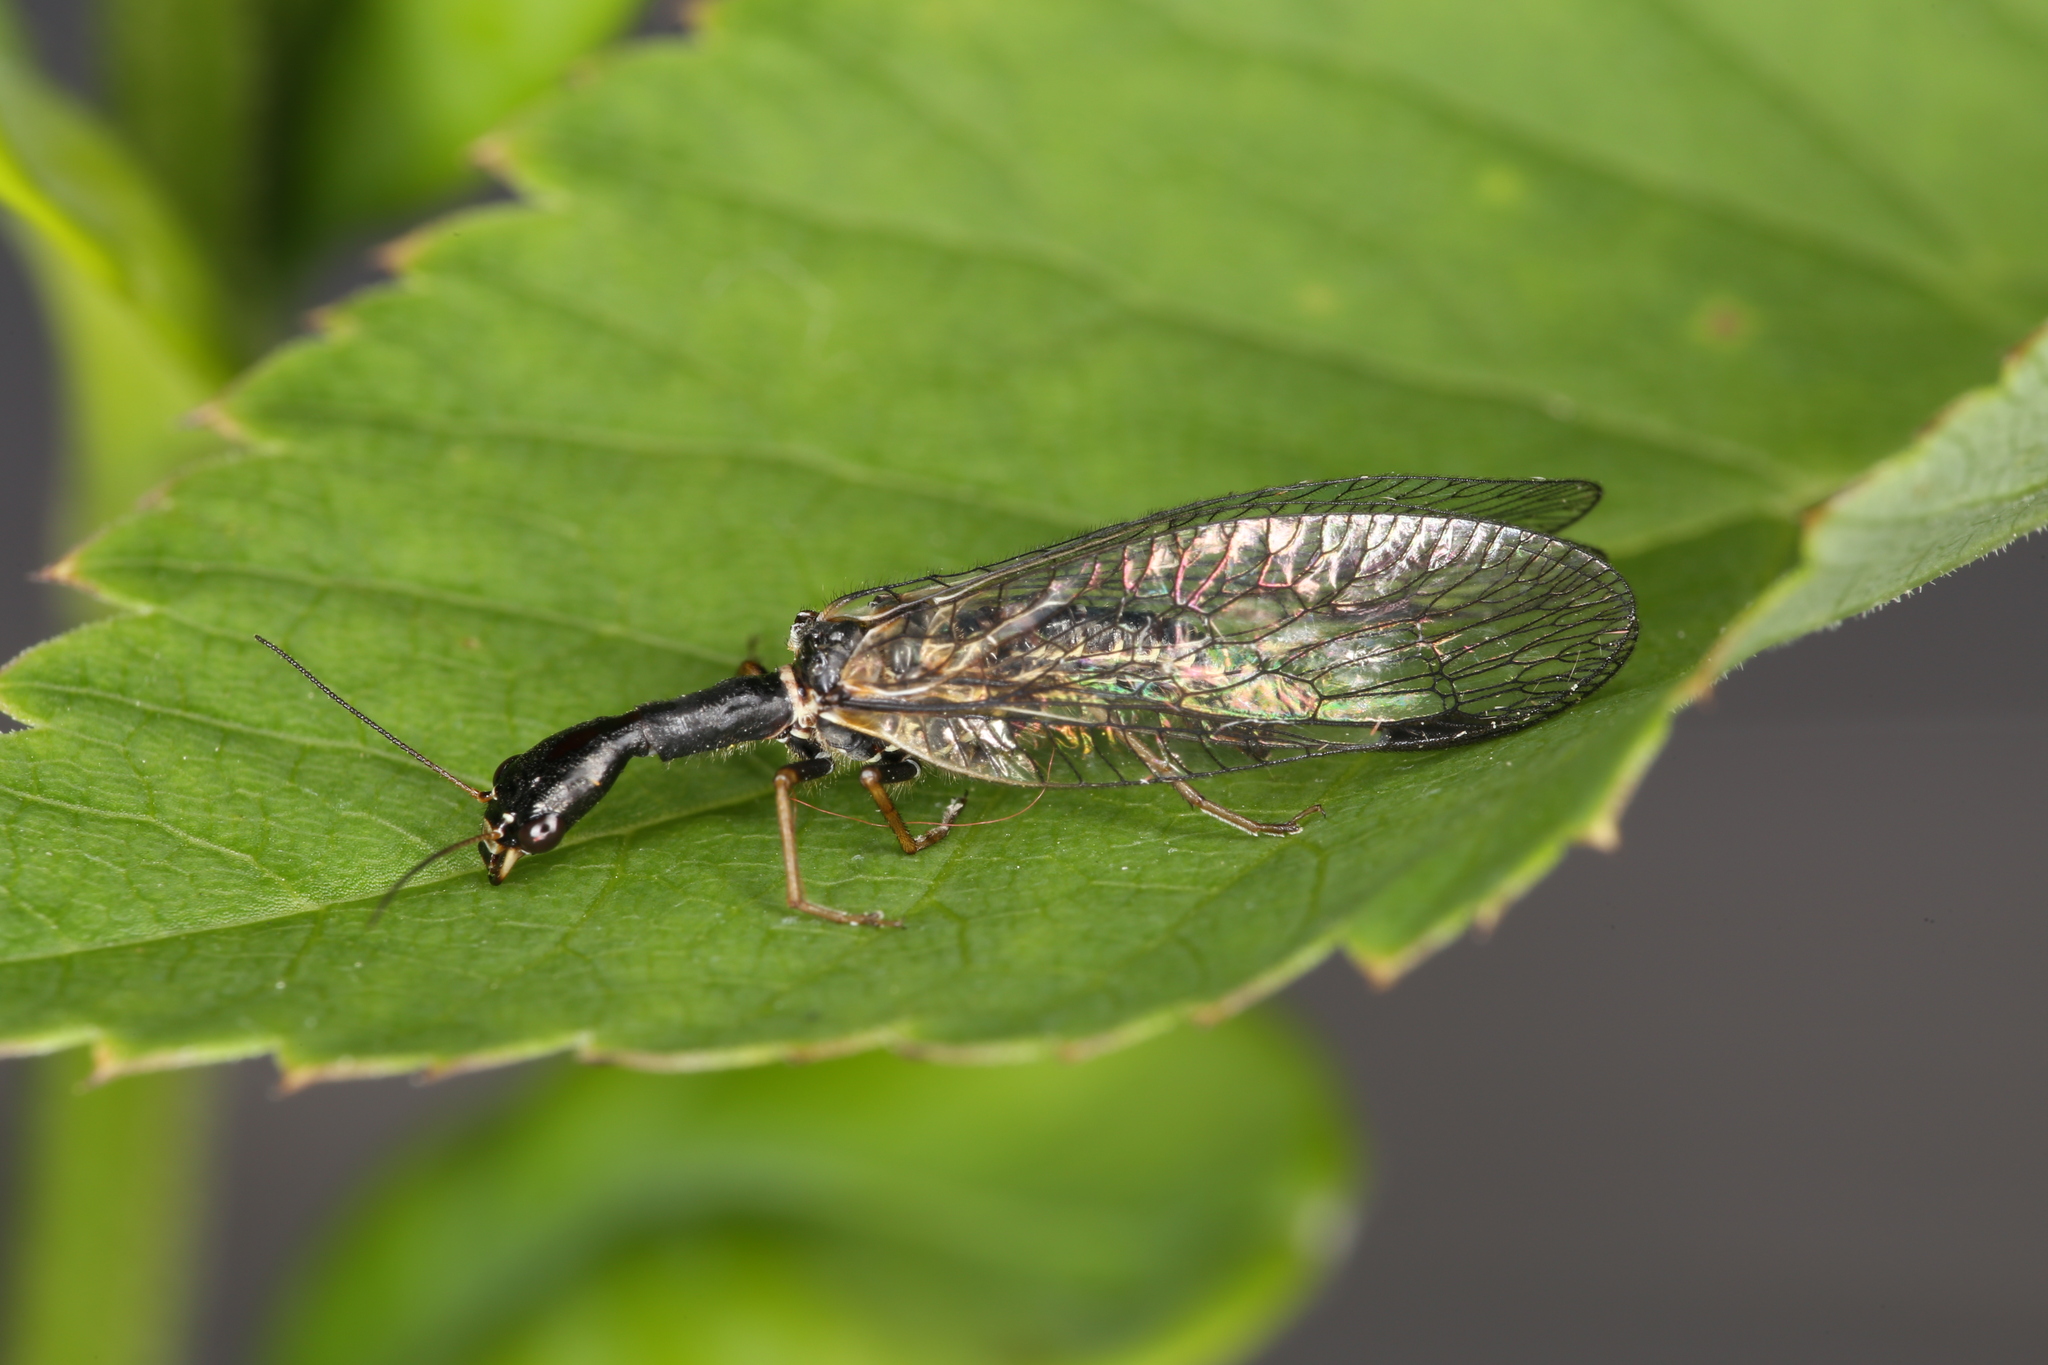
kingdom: Animalia
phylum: Arthropoda
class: Insecta
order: Raphidioptera
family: Raphidiidae
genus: Phaeostigma
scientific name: Phaeostigma notatum
